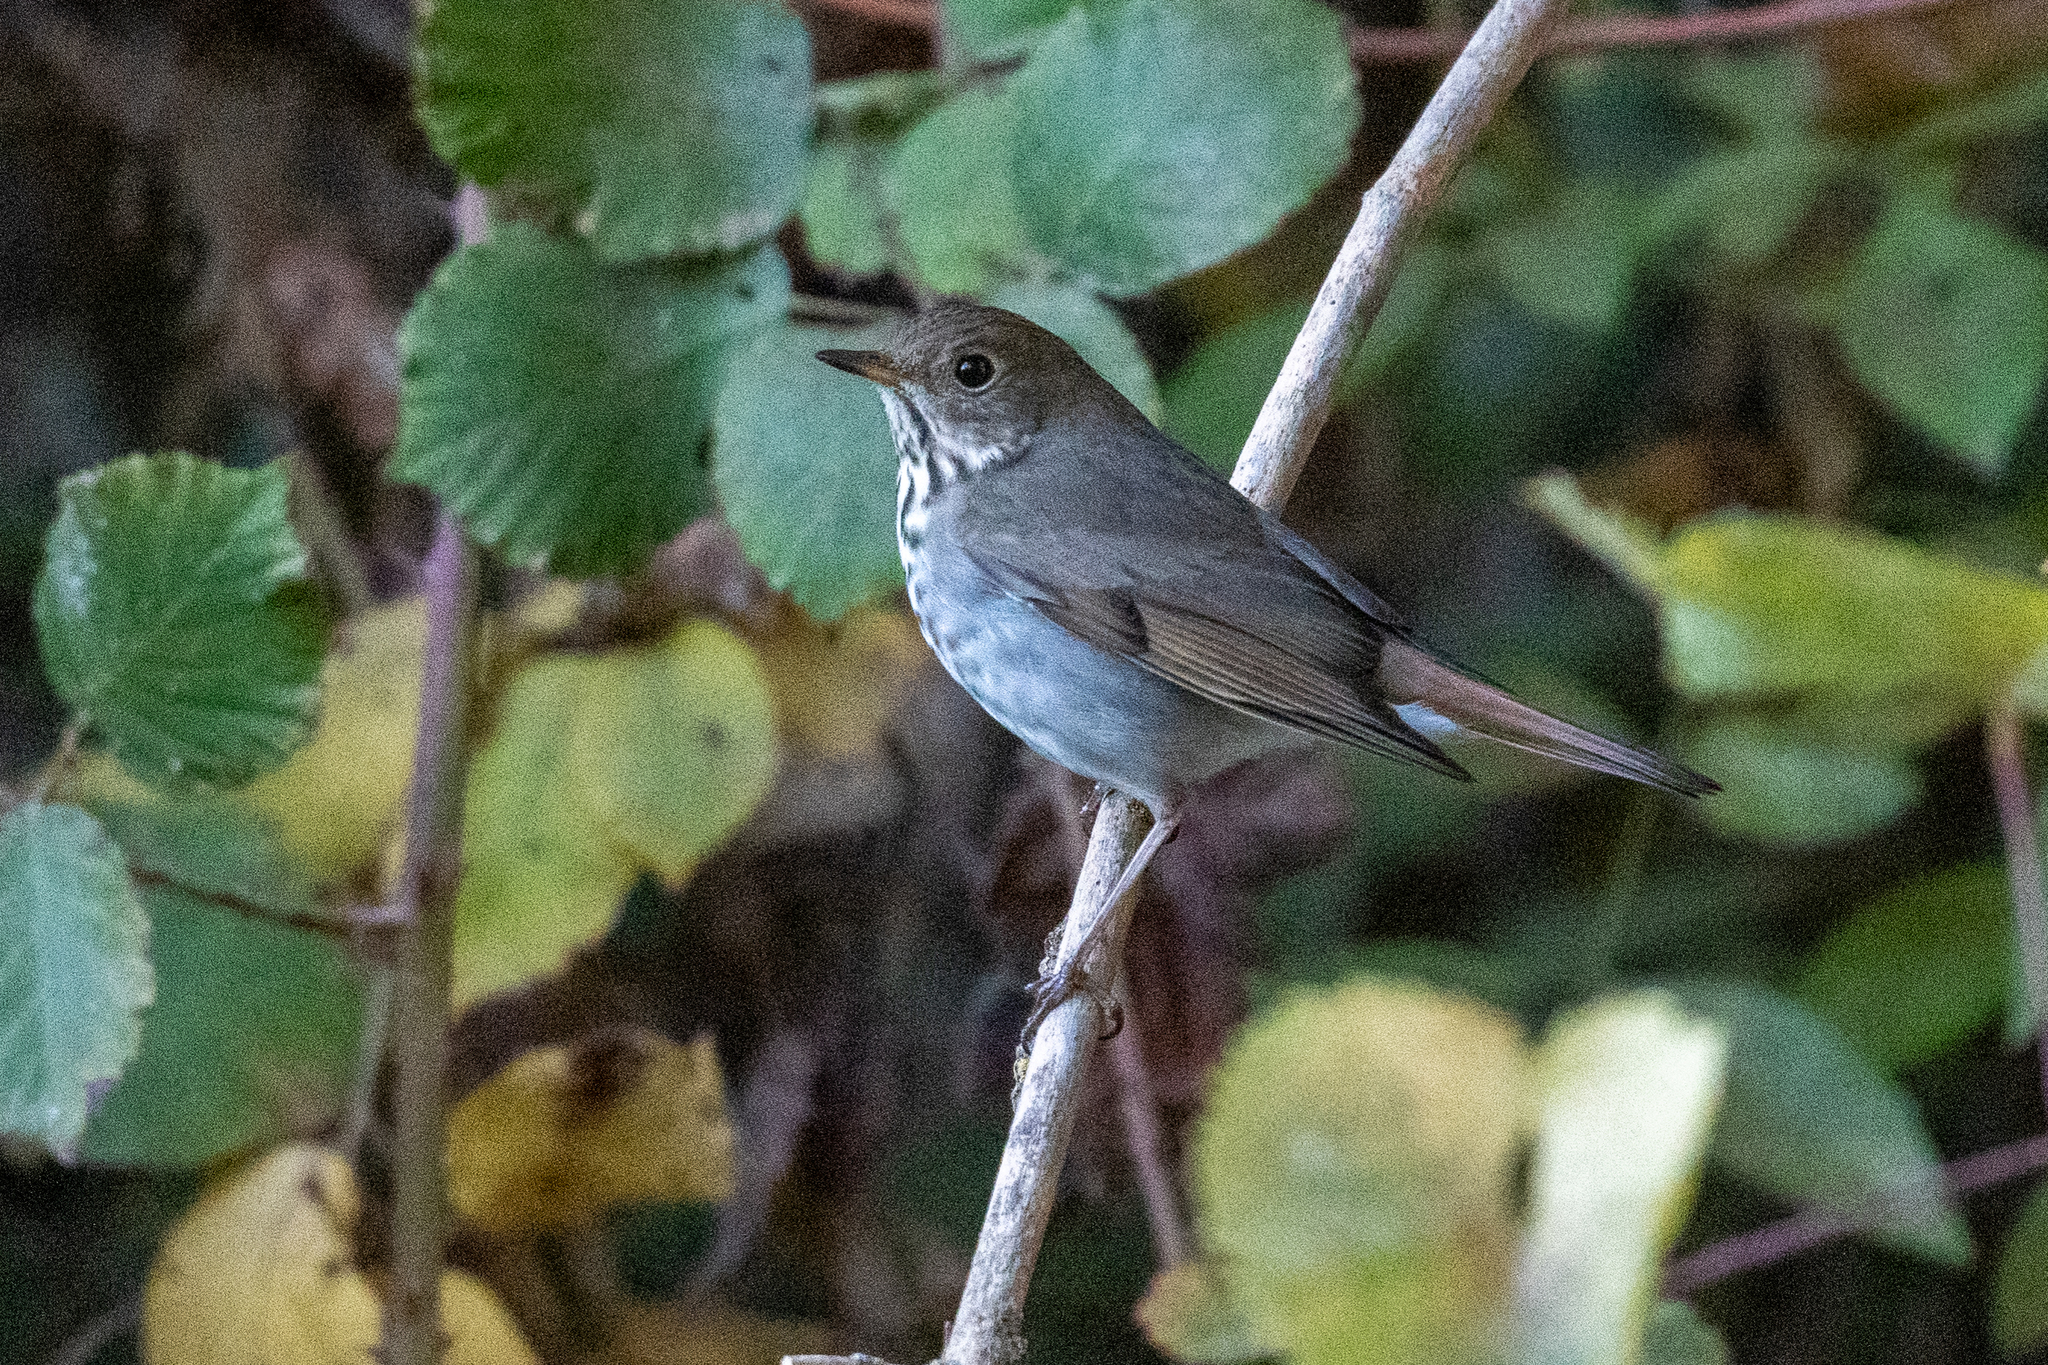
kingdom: Animalia
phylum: Chordata
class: Aves
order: Passeriformes
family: Turdidae
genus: Catharus
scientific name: Catharus guttatus
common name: Hermit thrush
